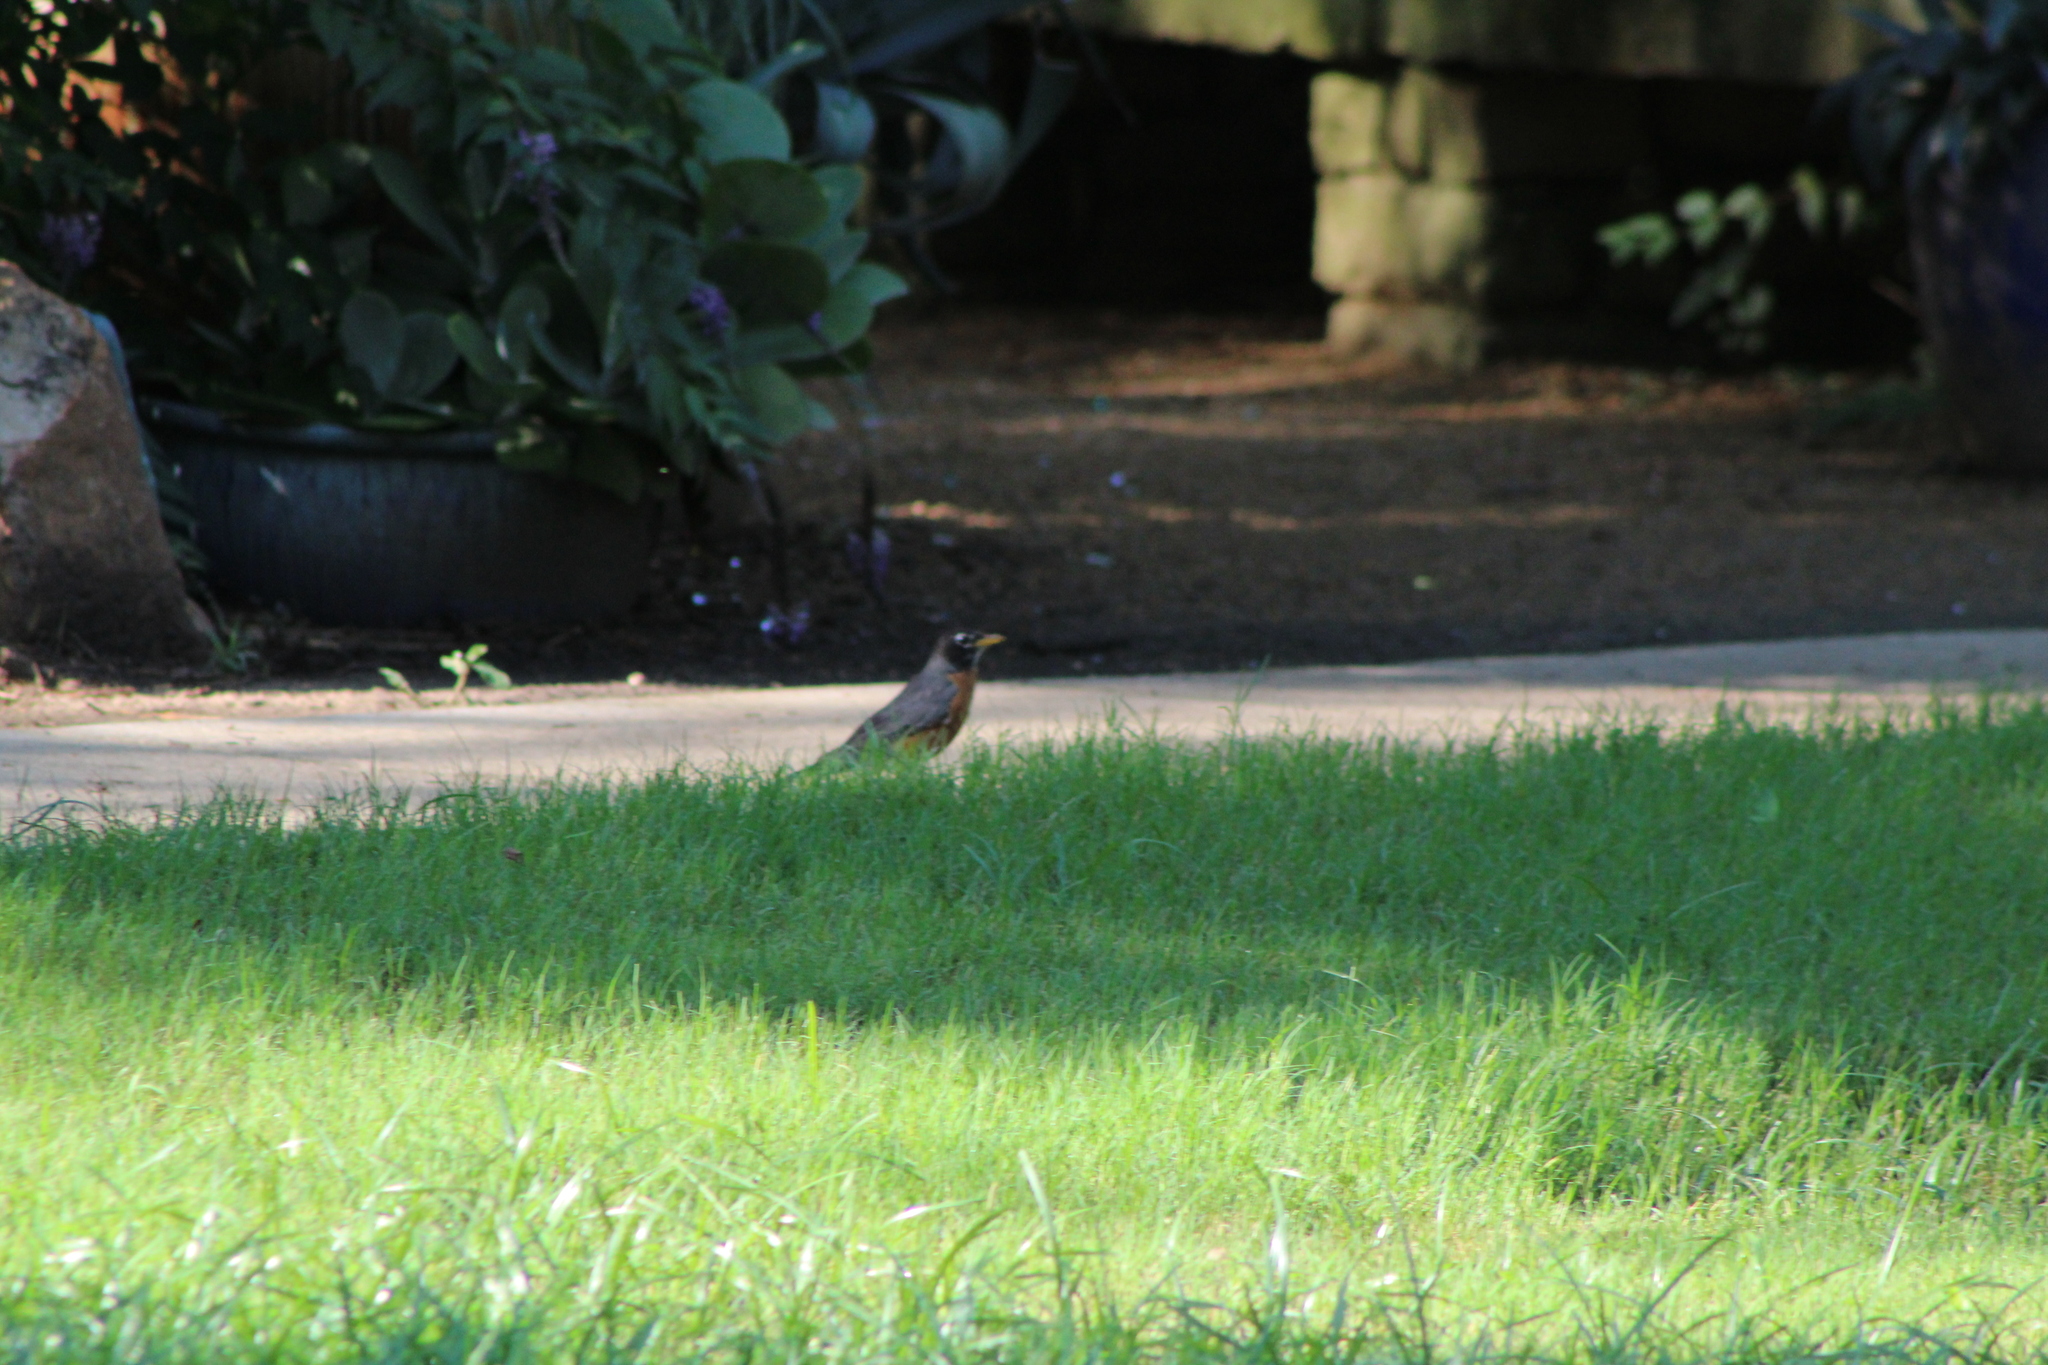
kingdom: Animalia
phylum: Chordata
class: Aves
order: Passeriformes
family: Turdidae
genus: Turdus
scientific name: Turdus migratorius
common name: American robin
